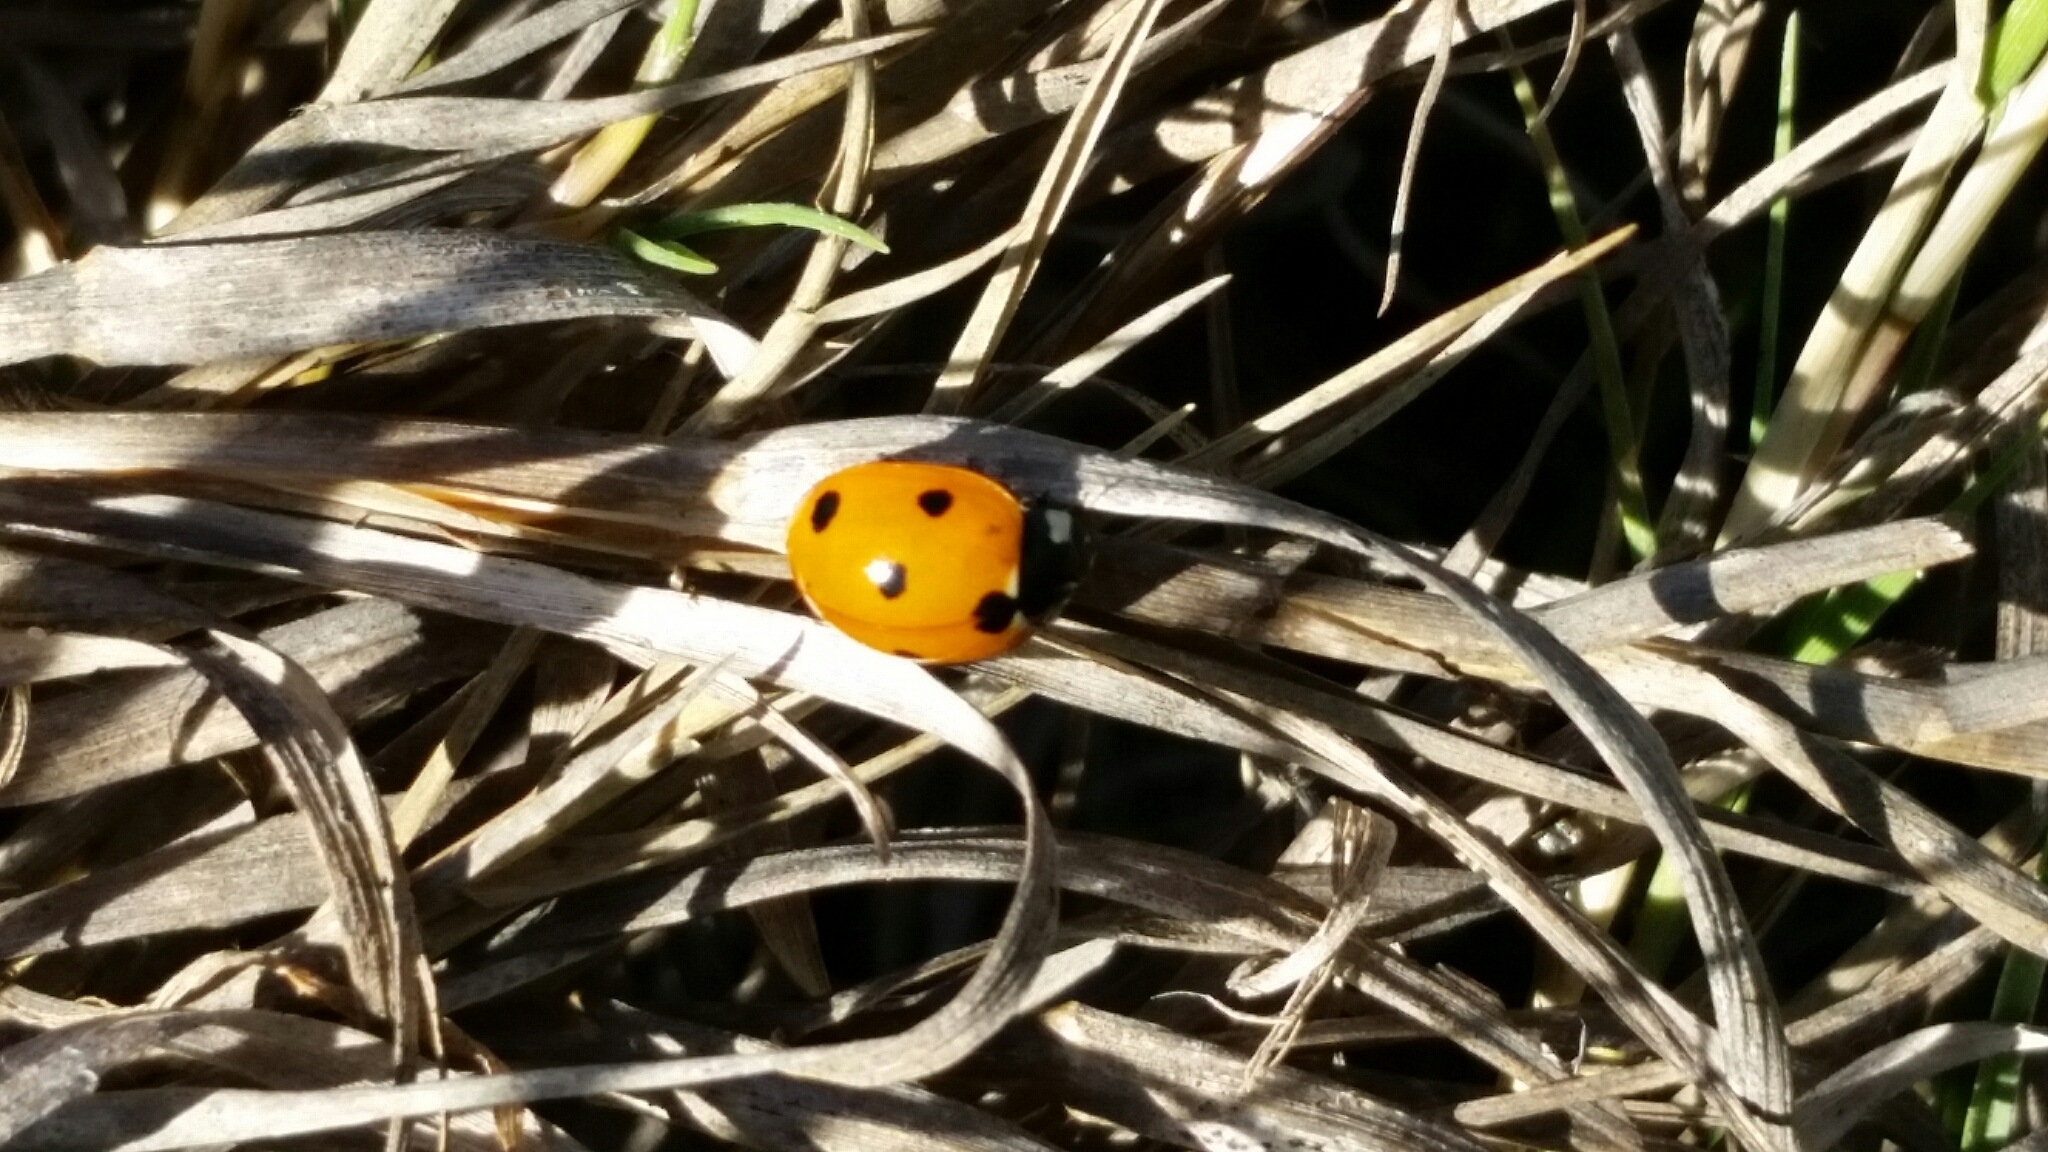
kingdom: Animalia
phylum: Arthropoda
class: Insecta
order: Coleoptera
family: Coccinellidae
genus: Coccinella
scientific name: Coccinella septempunctata
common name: Sevenspotted lady beetle
